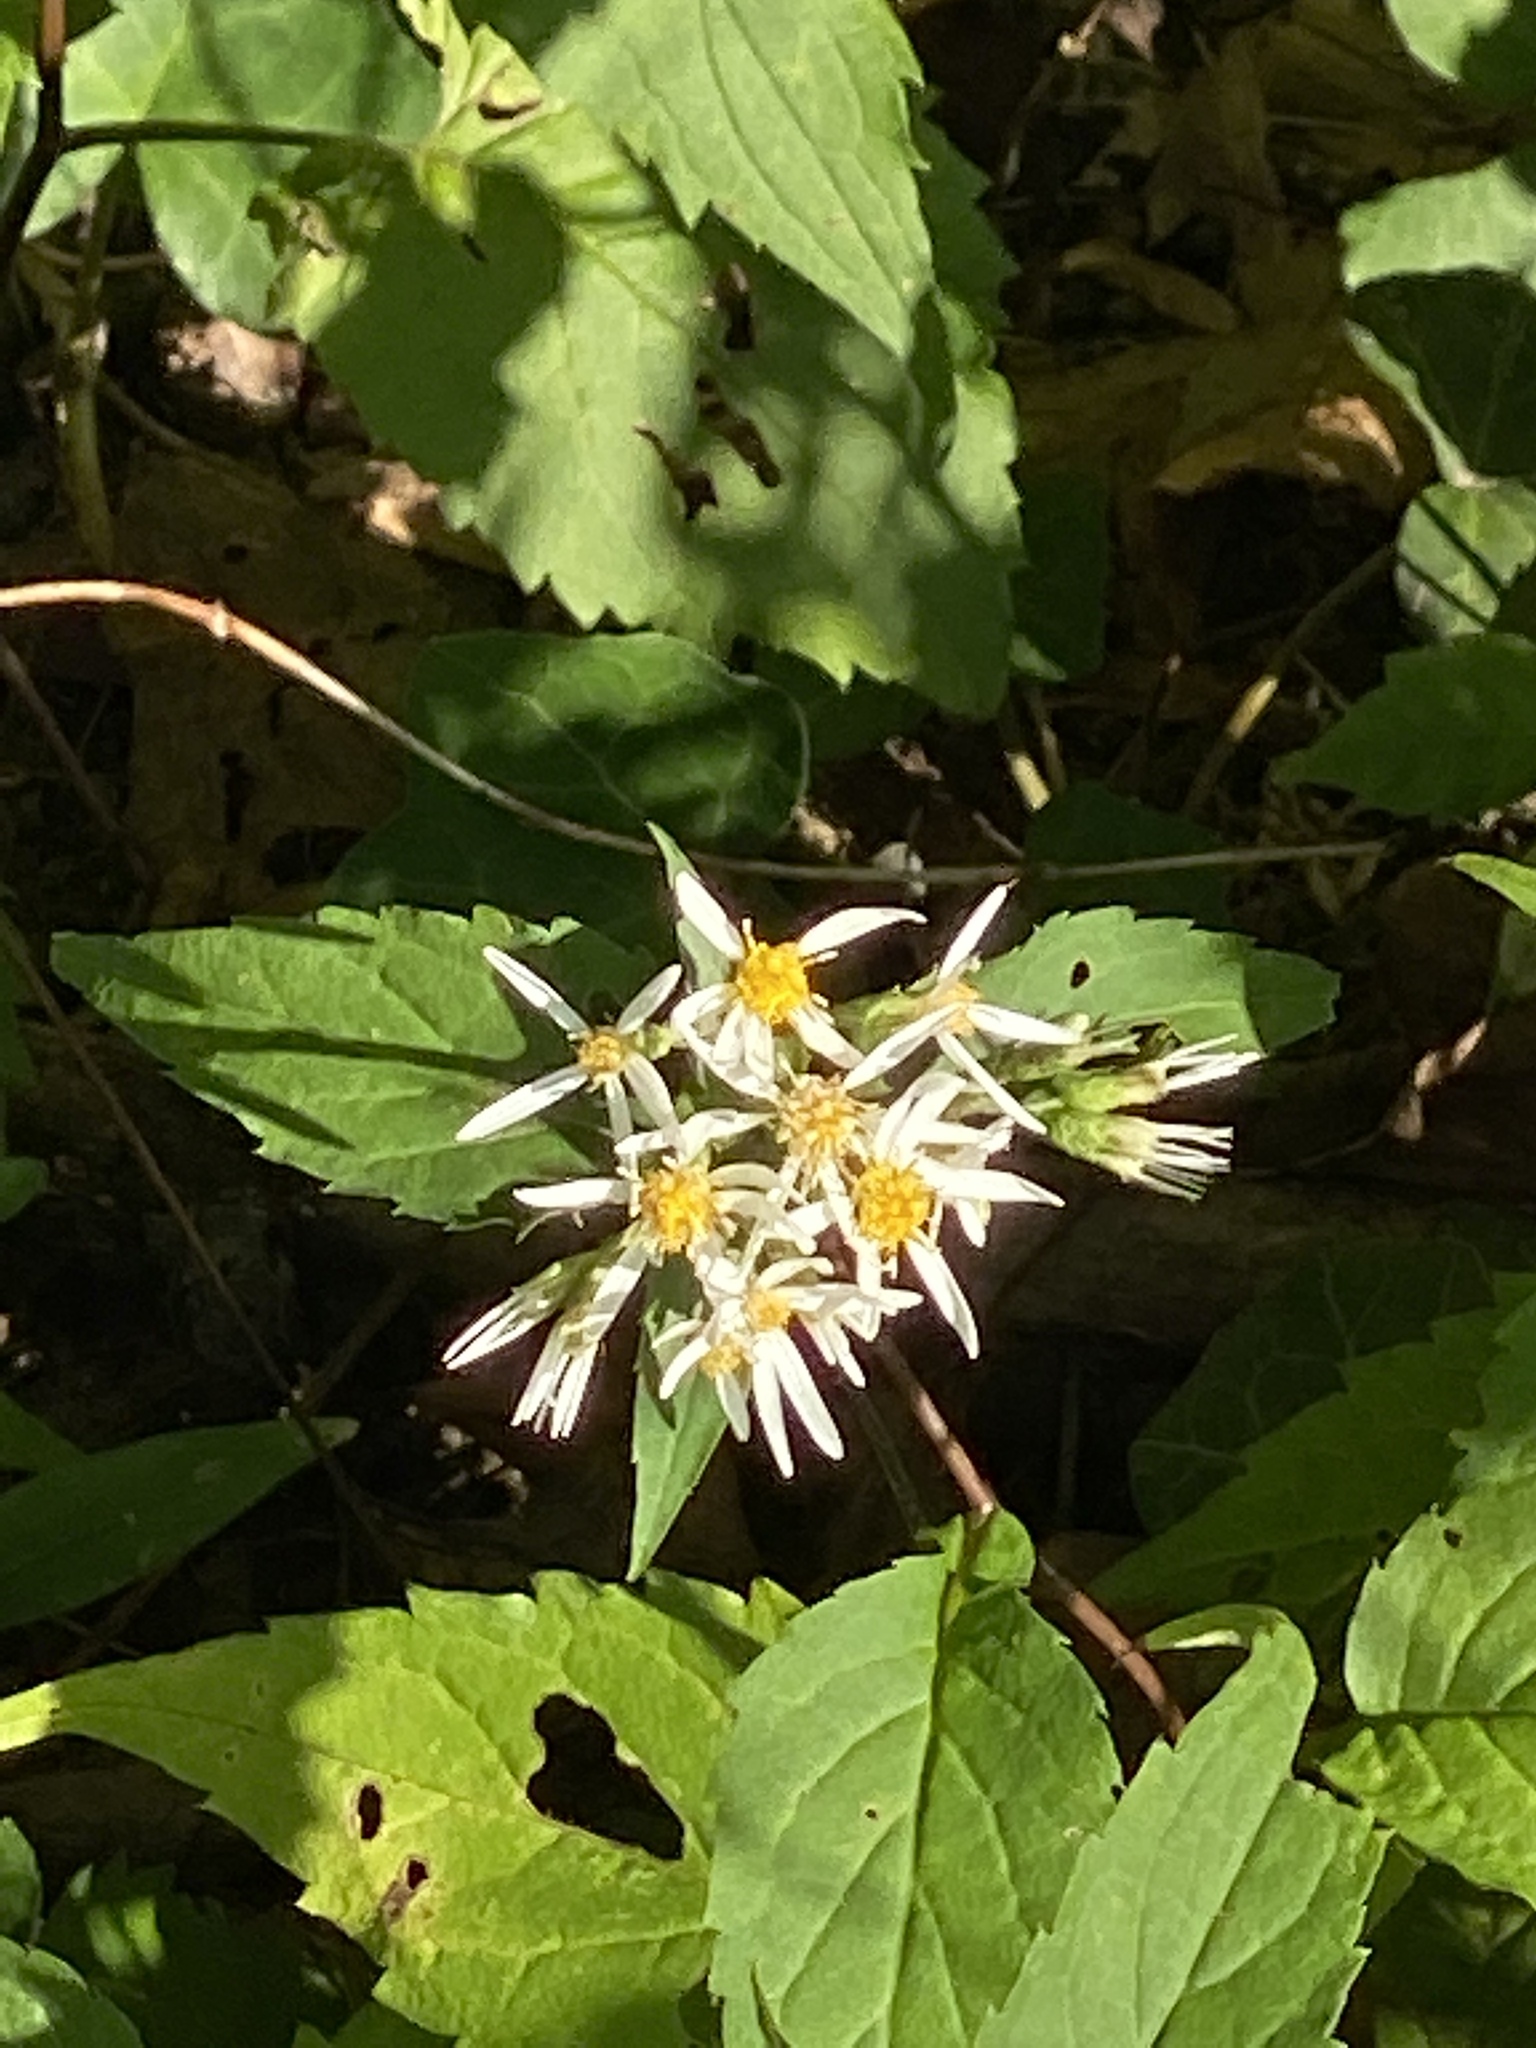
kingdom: Plantae
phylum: Tracheophyta
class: Magnoliopsida
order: Asterales
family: Asteraceae
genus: Eurybia
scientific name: Eurybia divaricata
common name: White wood aster
